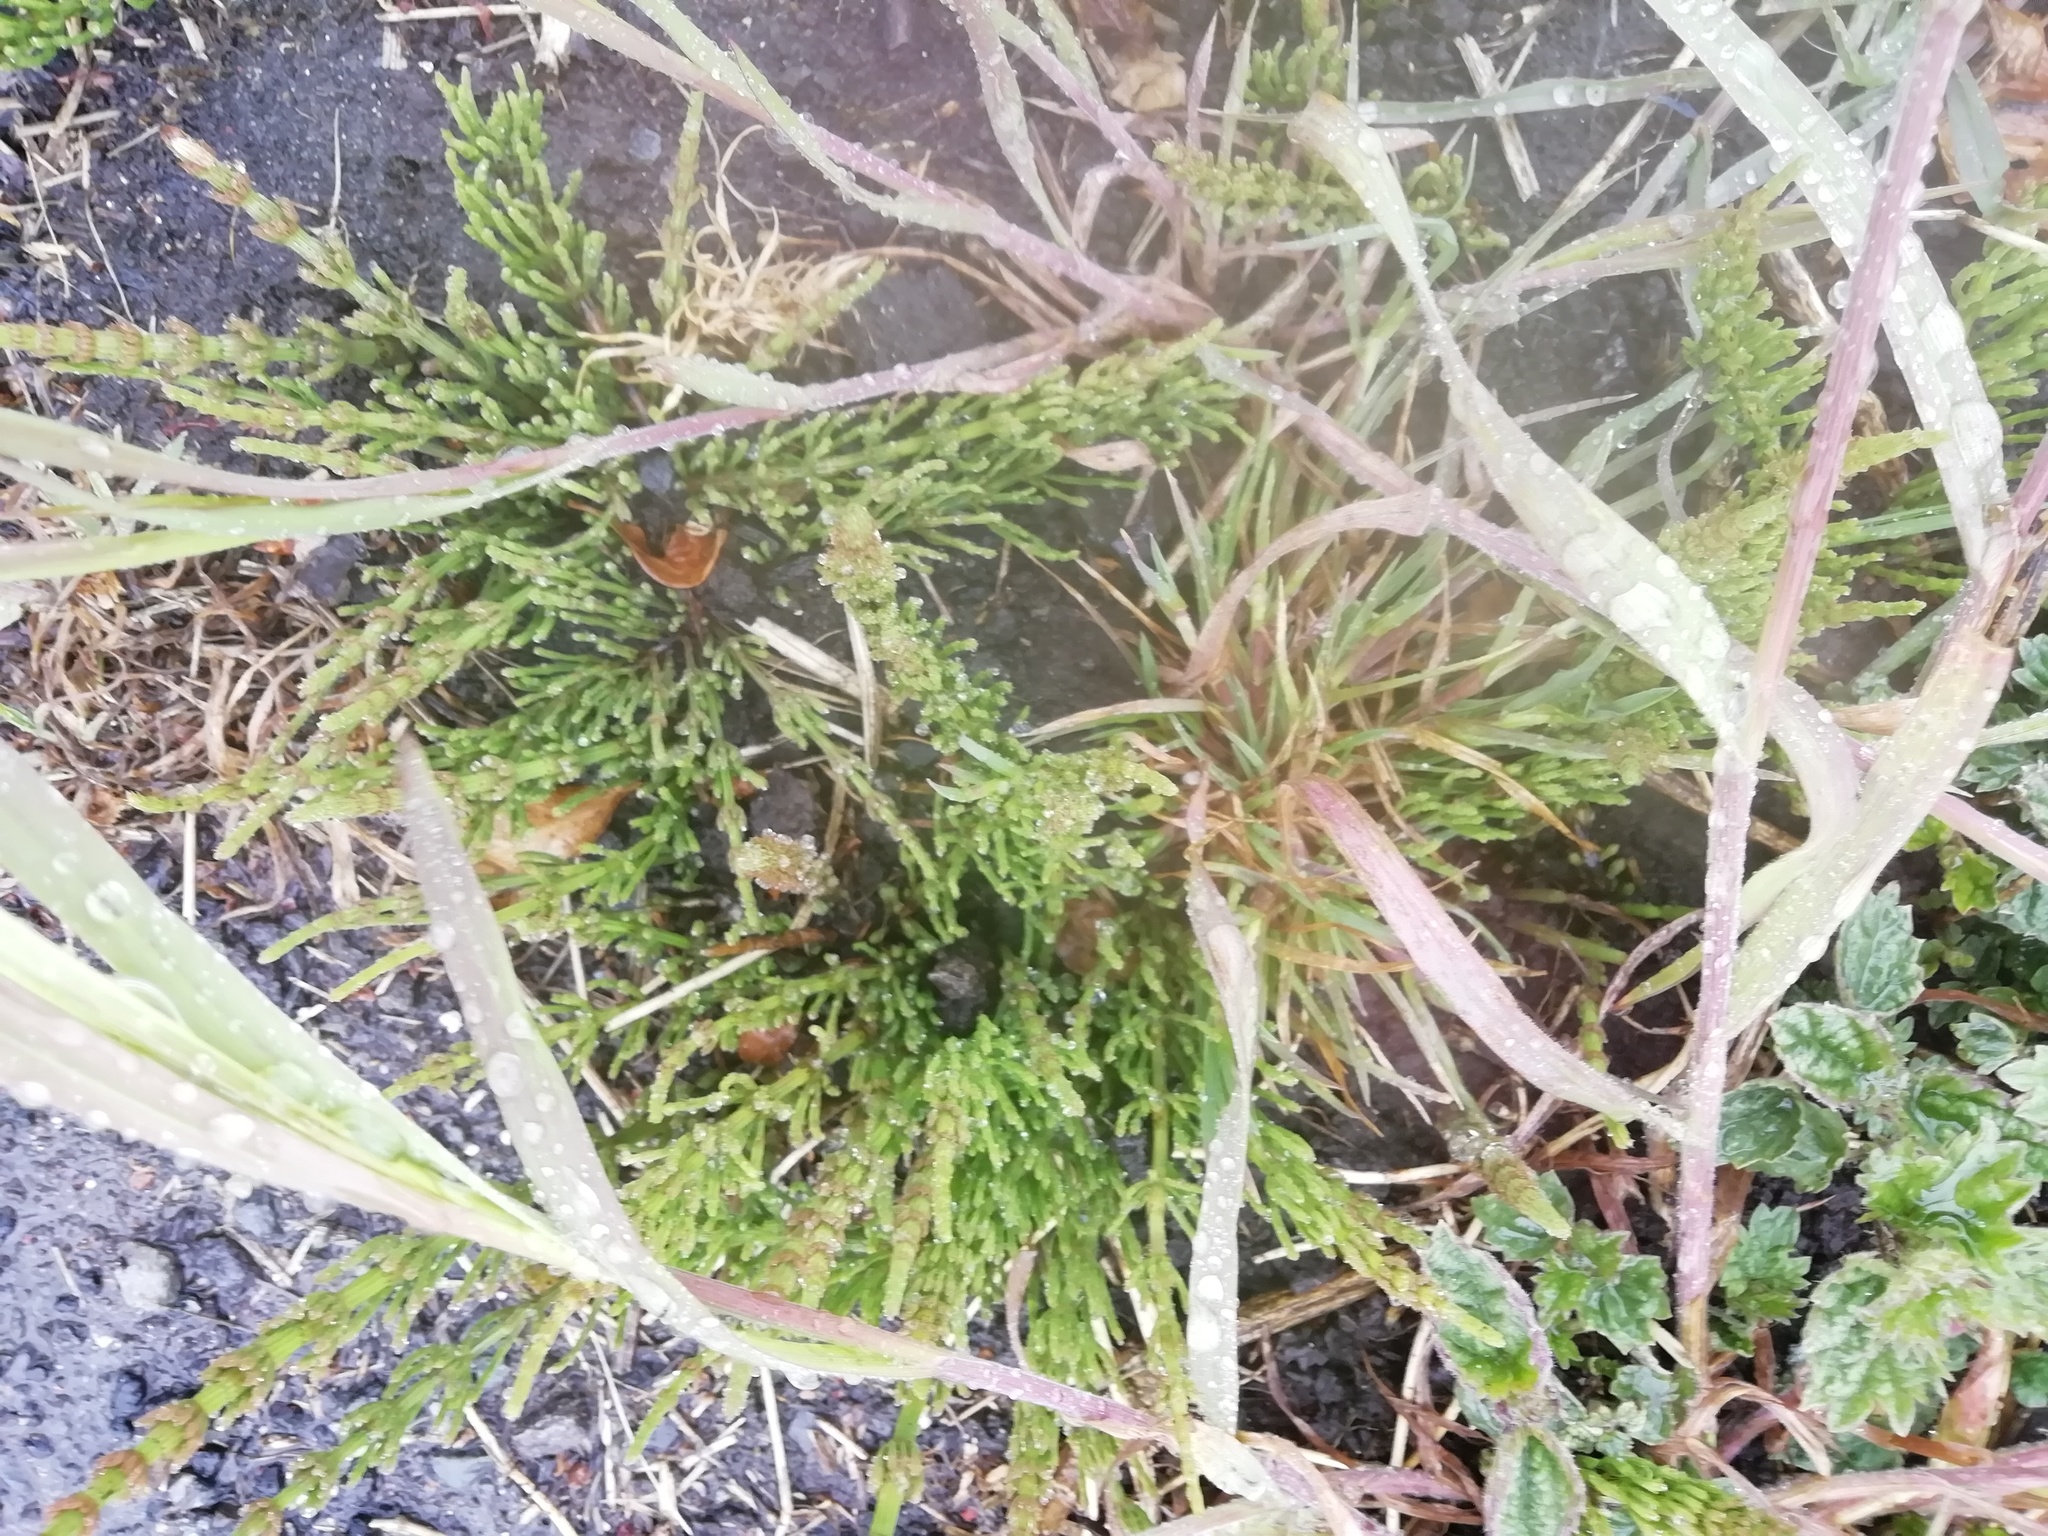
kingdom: Plantae
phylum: Tracheophyta
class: Polypodiopsida
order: Equisetales
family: Equisetaceae
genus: Equisetum
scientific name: Equisetum arvense
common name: Field horsetail
